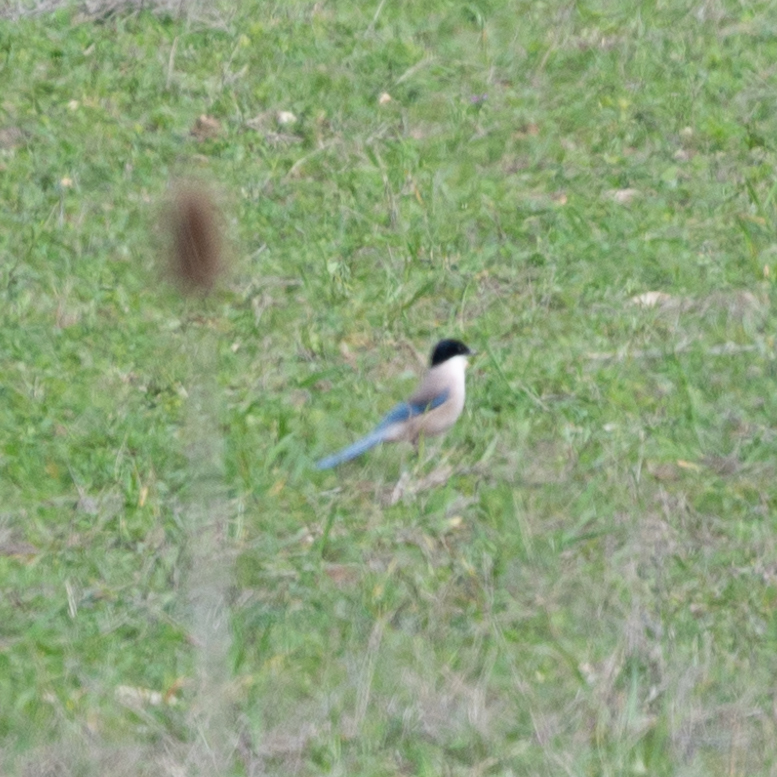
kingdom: Animalia
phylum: Chordata
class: Aves
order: Passeriformes
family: Corvidae
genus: Cyanopica
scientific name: Cyanopica cooki
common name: Iberian magpie
